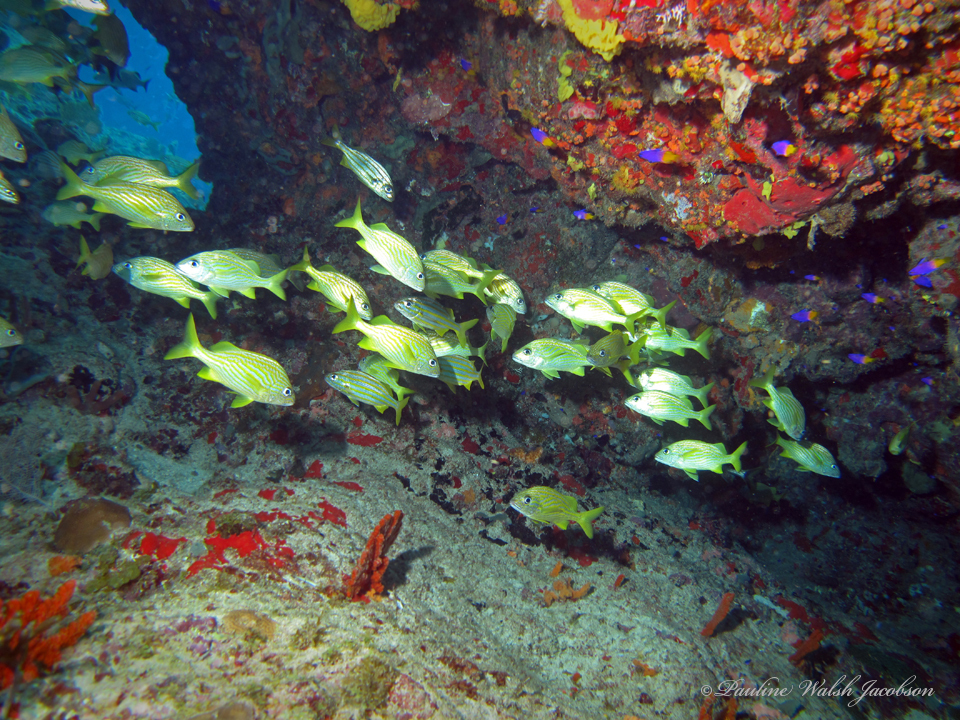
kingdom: Animalia
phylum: Chordata
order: Perciformes
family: Grammatidae
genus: Gramma
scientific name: Gramma loreto
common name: Fairy basslet
